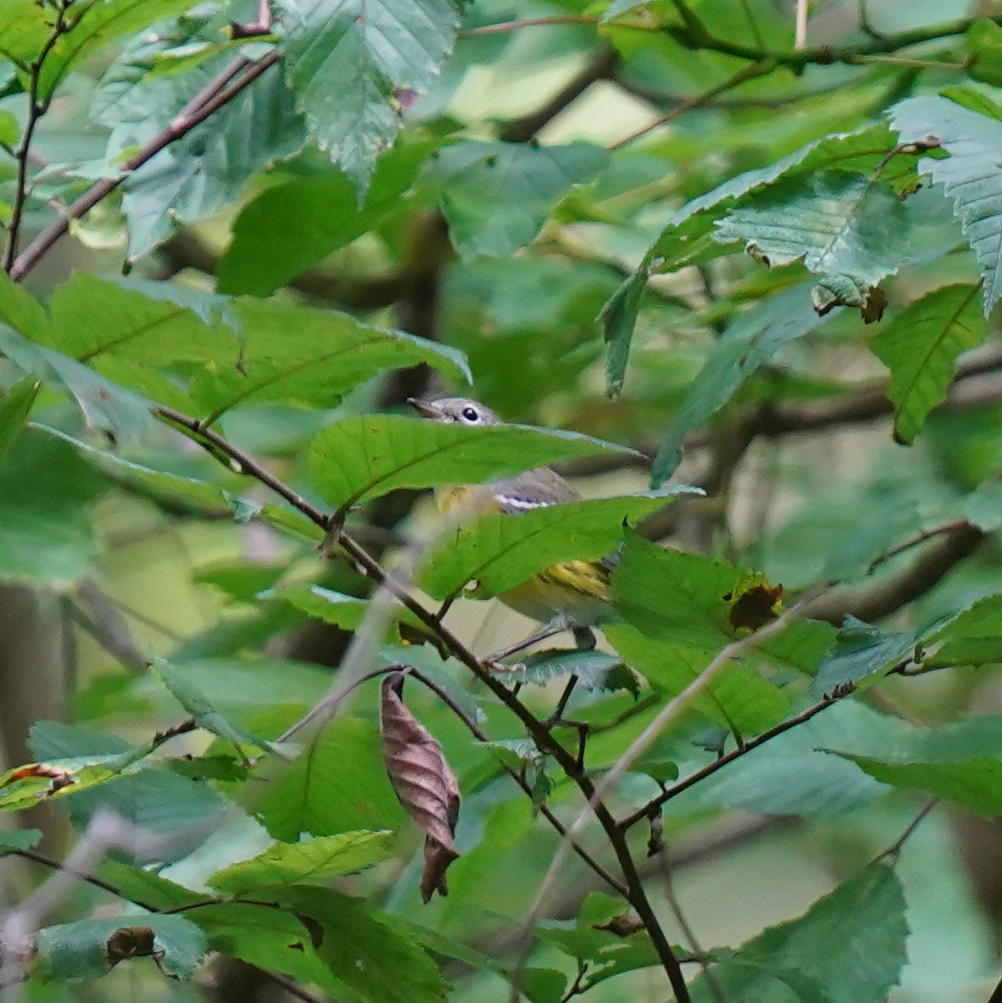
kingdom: Animalia
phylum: Chordata
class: Aves
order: Passeriformes
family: Parulidae
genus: Setophaga
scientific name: Setophaga magnolia
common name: Magnolia warbler
